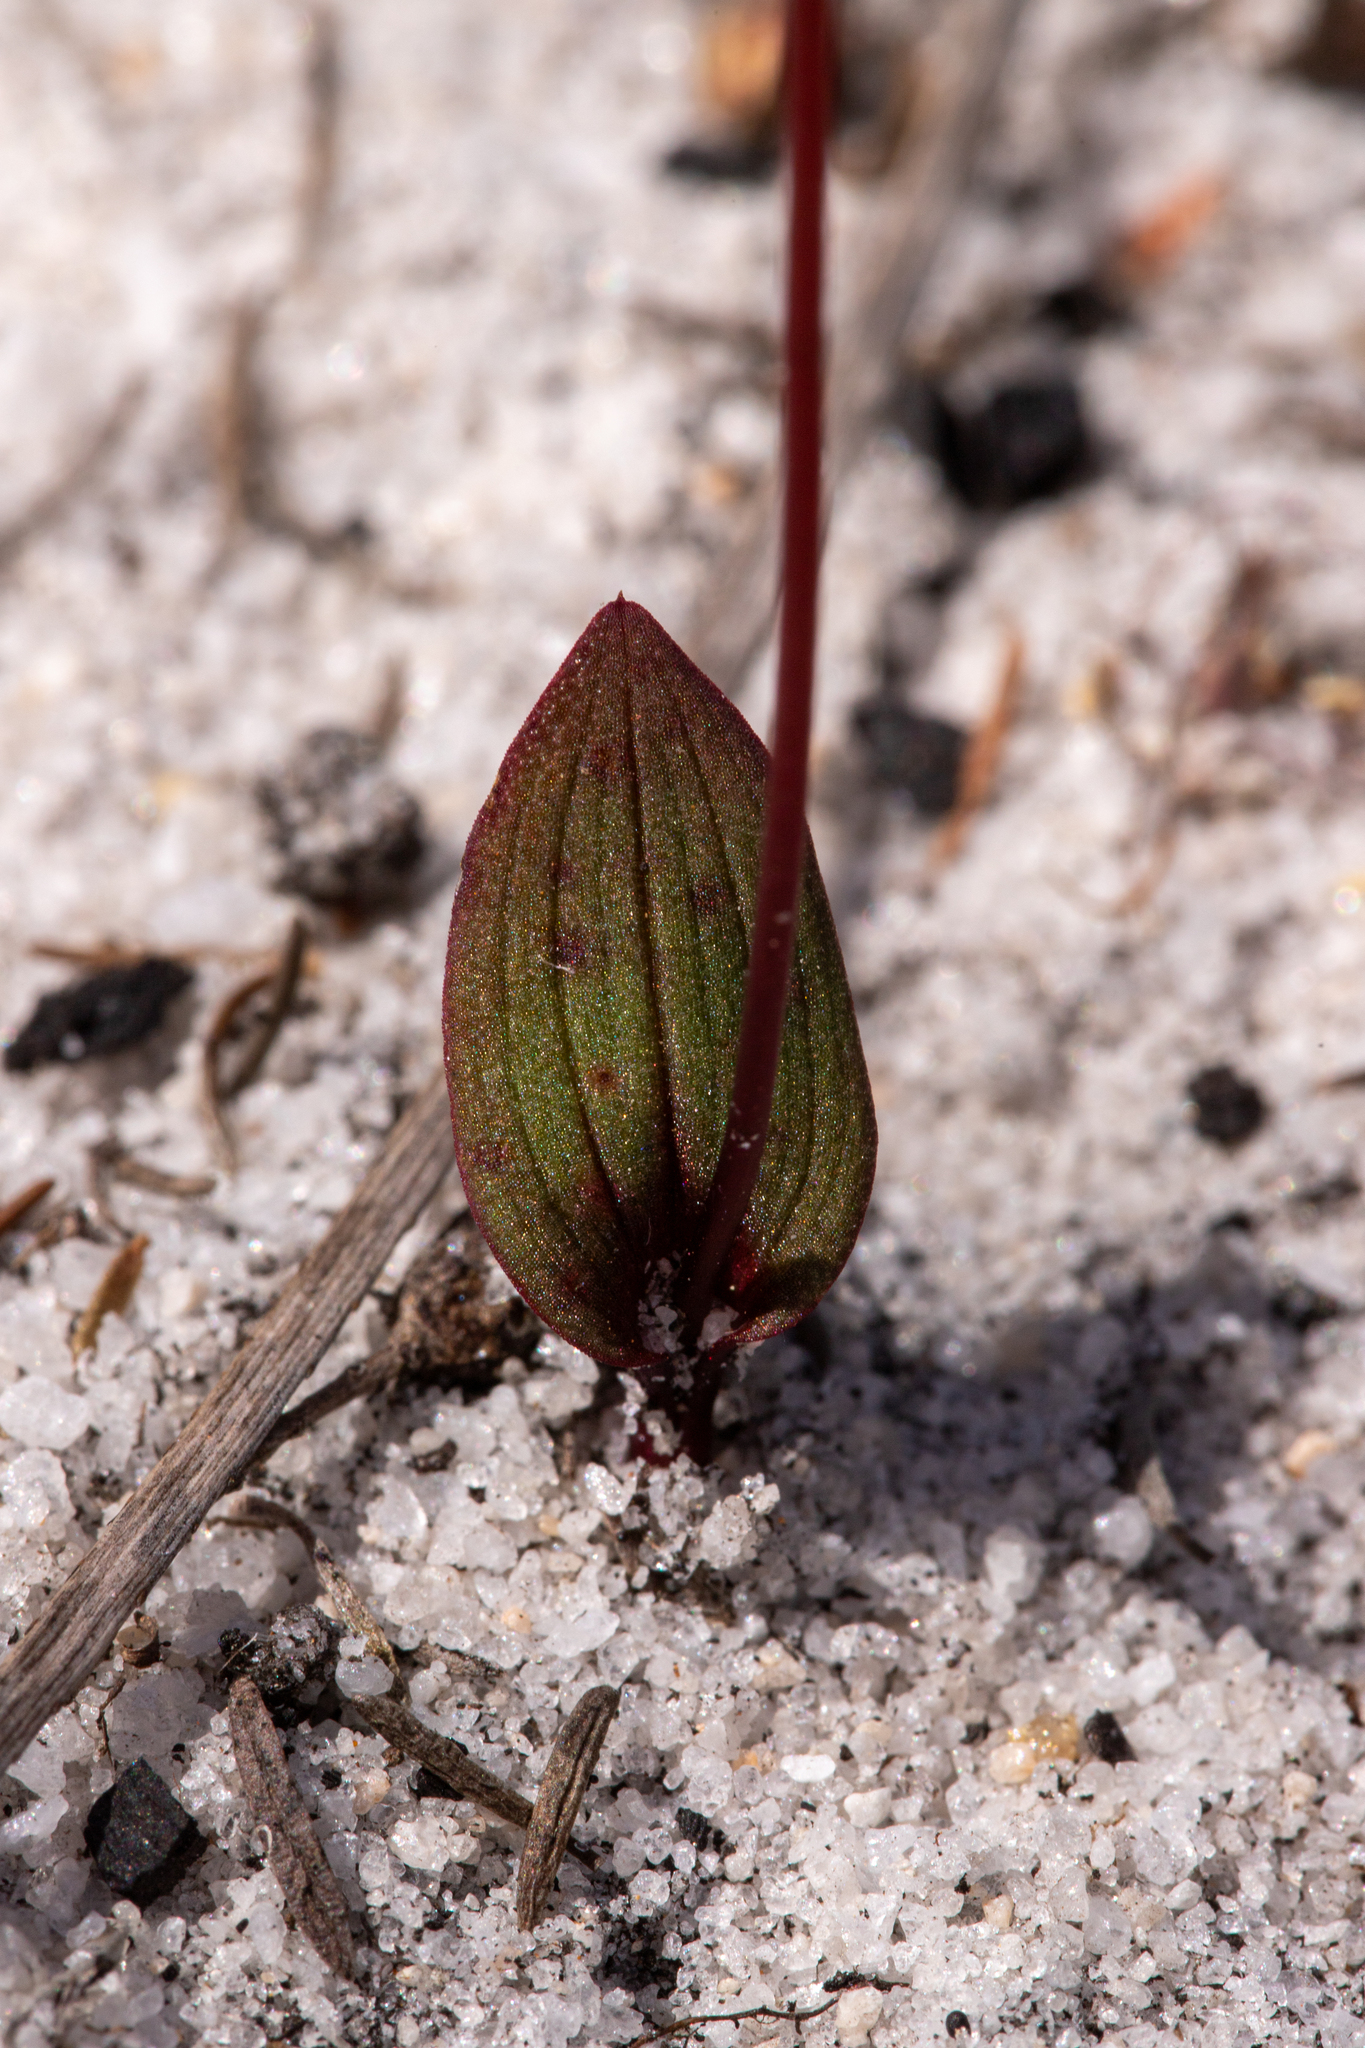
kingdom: Plantae
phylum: Tracheophyta
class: Liliopsida
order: Asparagales
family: Orchidaceae
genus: Caleana
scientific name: Caleana nigrita
